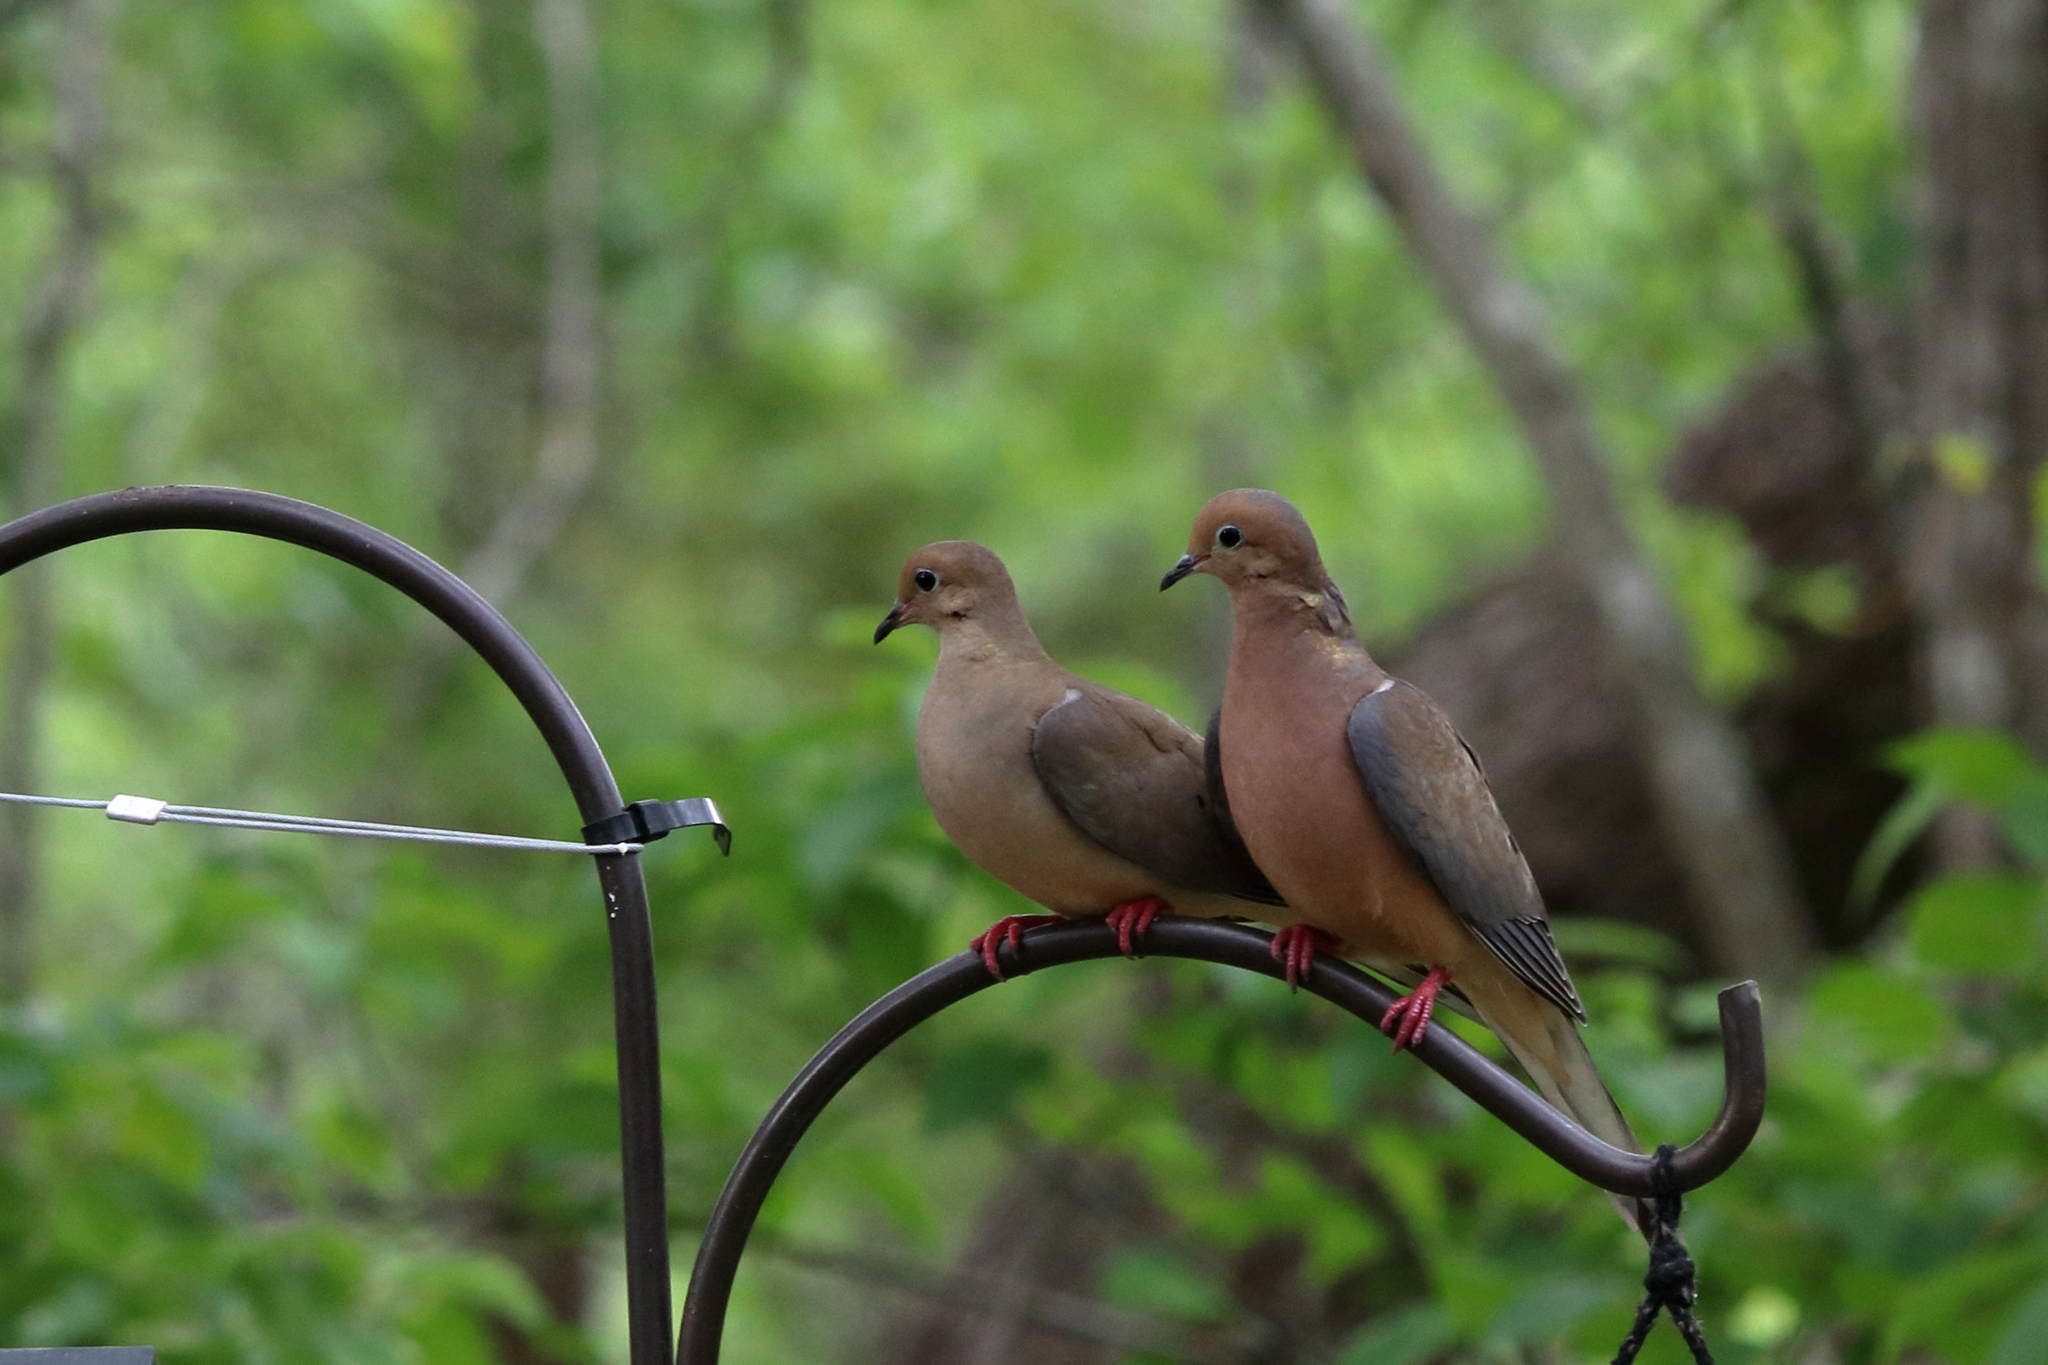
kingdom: Animalia
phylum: Chordata
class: Aves
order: Columbiformes
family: Columbidae
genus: Zenaida
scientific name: Zenaida macroura
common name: Mourning dove
